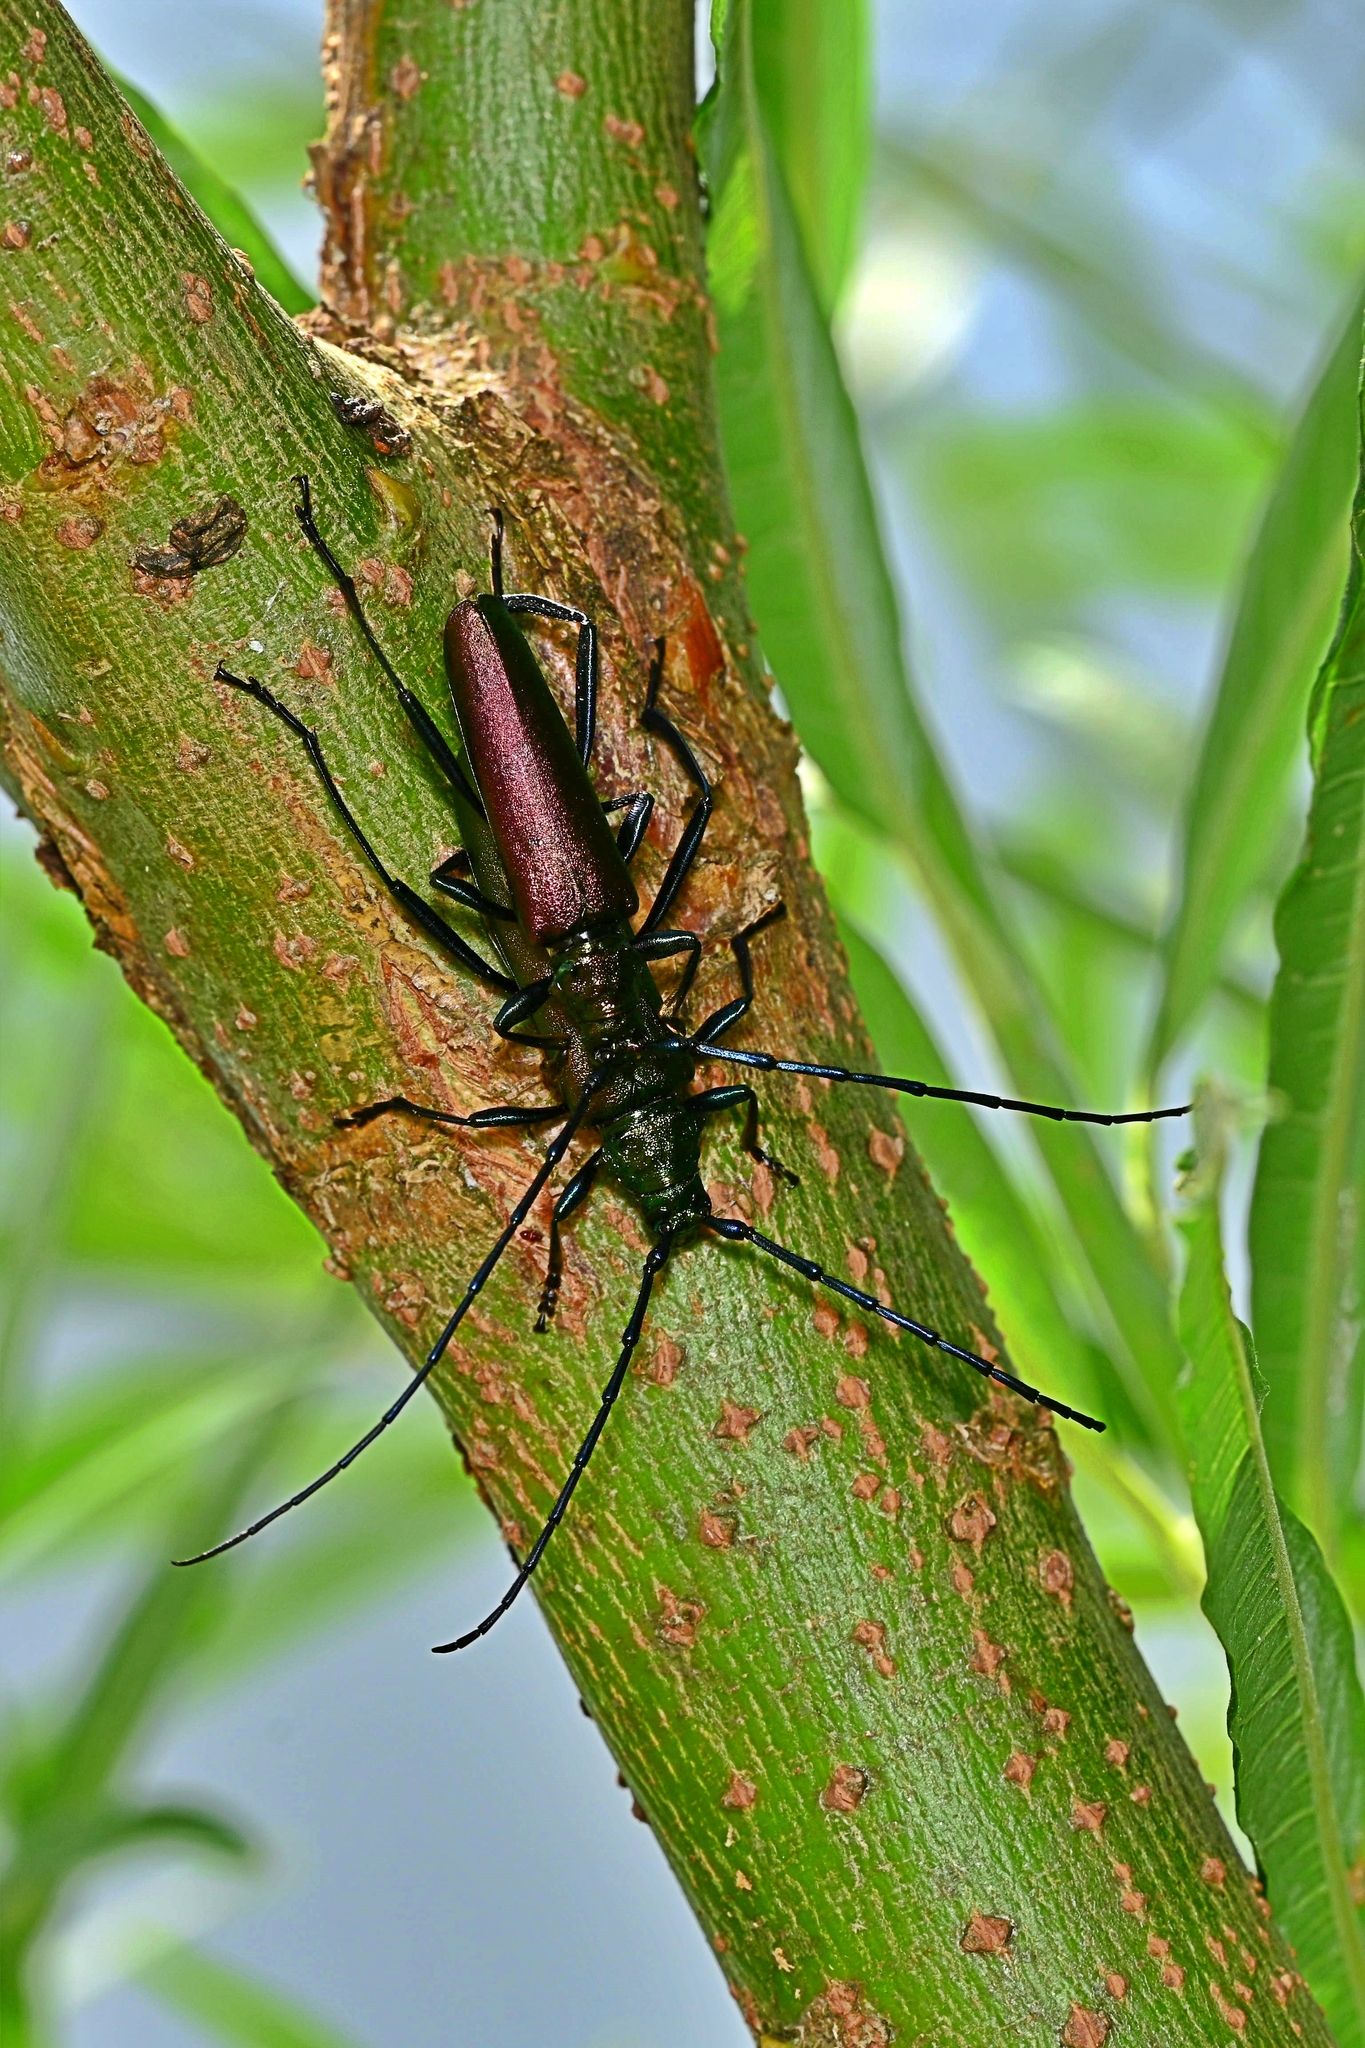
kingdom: Animalia
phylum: Arthropoda
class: Insecta
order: Coleoptera
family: Cerambycidae
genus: Aromia
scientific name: Aromia moschata
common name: Musk beetle
